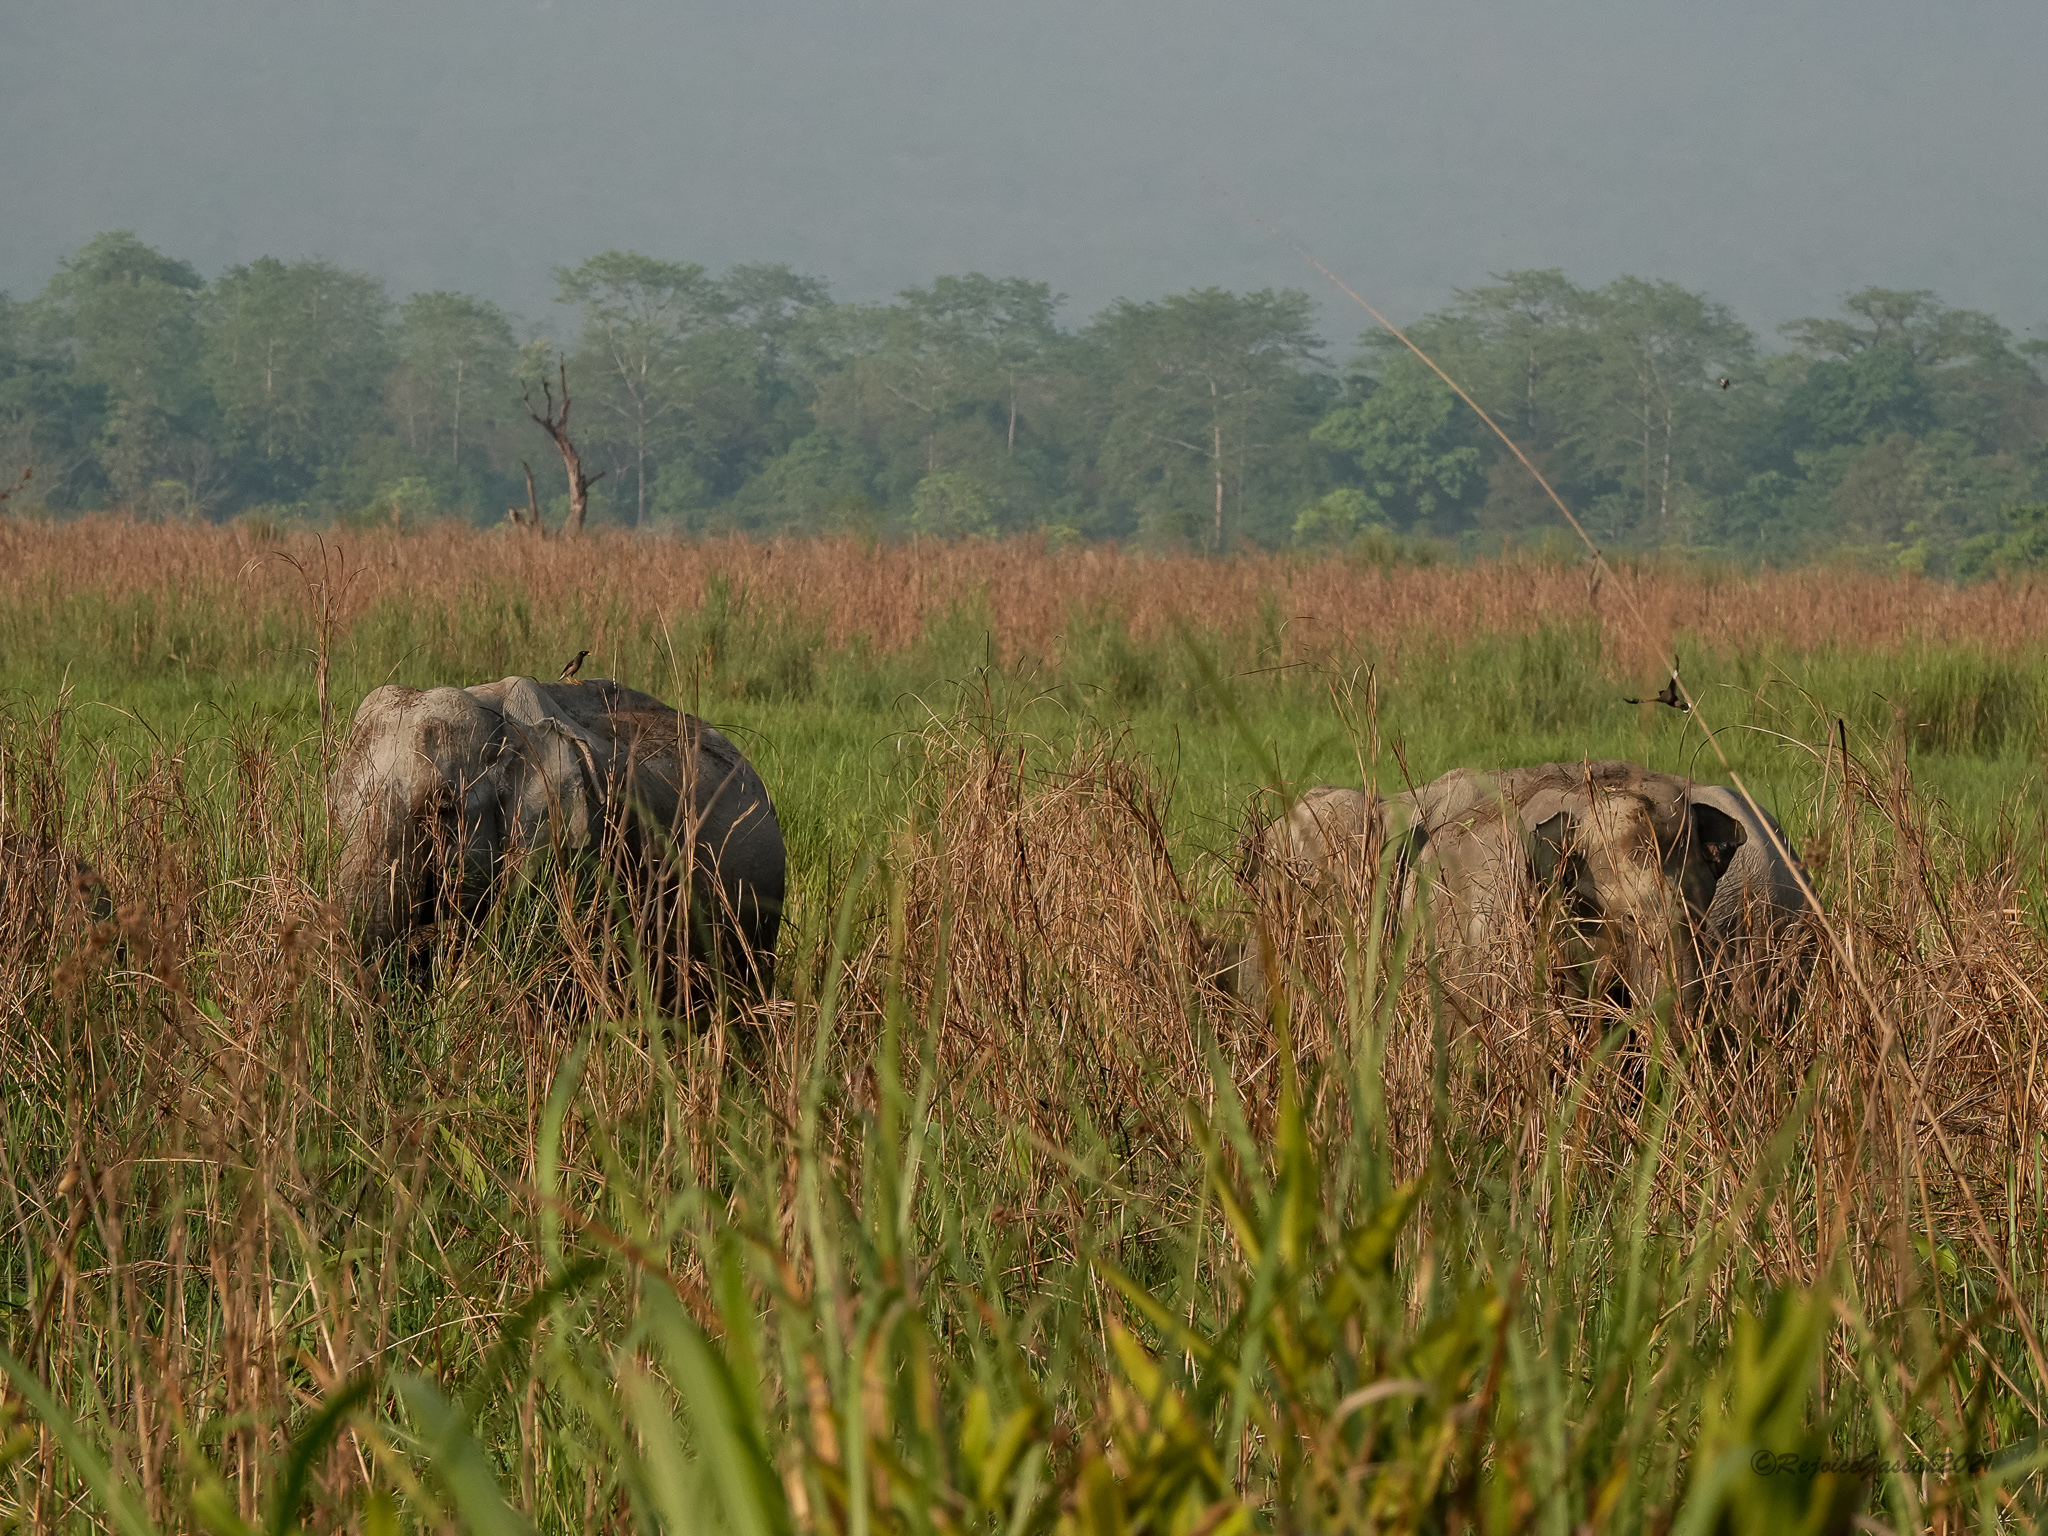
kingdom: Animalia
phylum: Chordata
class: Mammalia
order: Proboscidea
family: Elephantidae
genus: Elephas
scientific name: Elephas maximus
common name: Asian elephant
